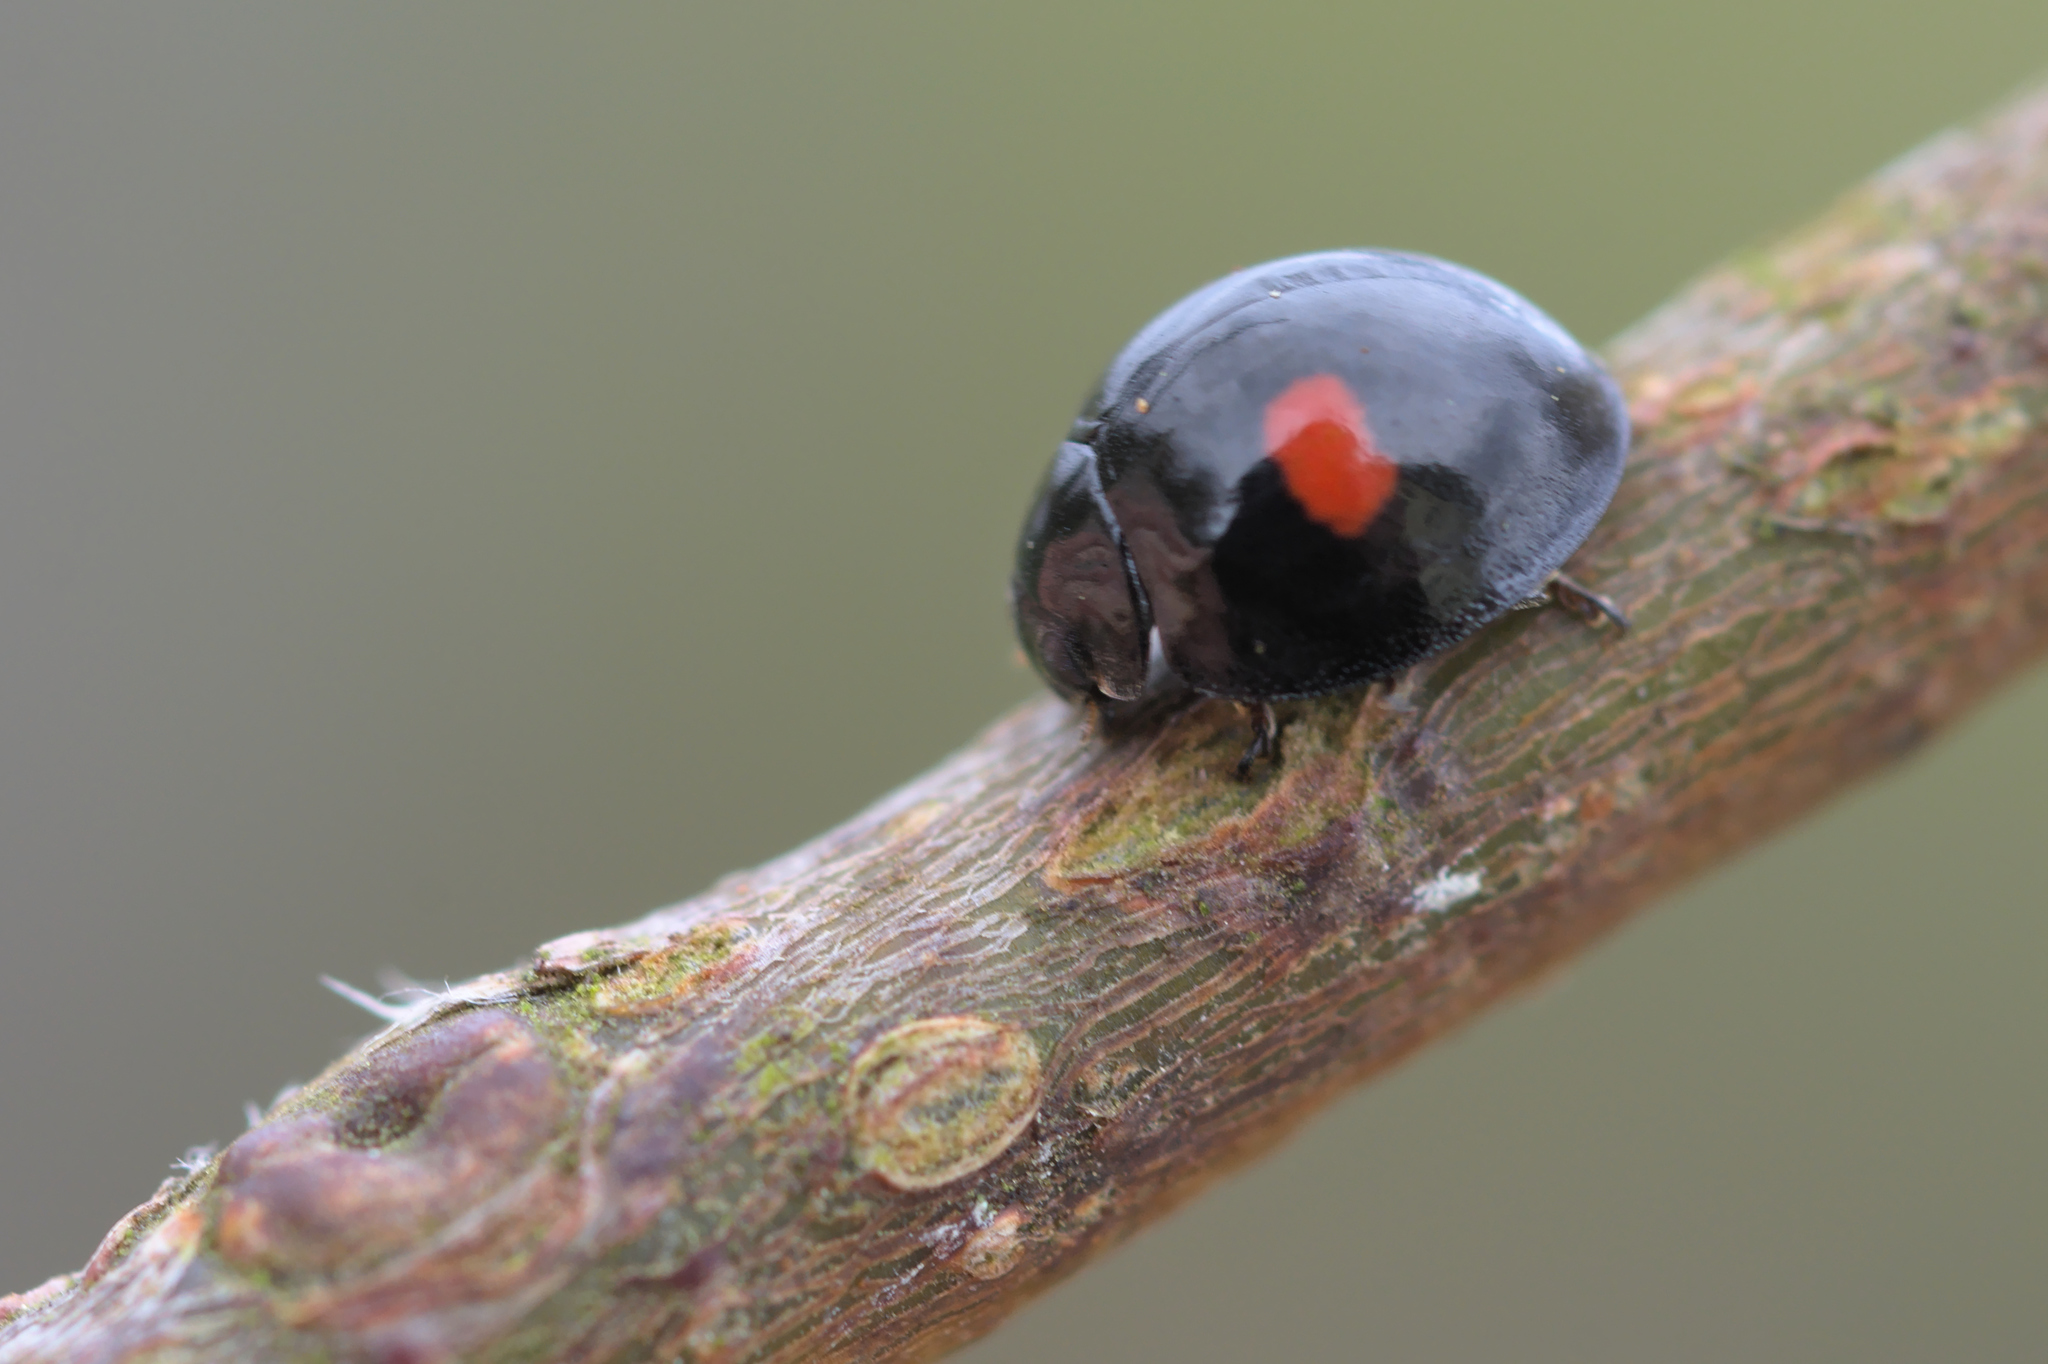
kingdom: Animalia
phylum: Arthropoda
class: Insecta
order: Coleoptera
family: Coccinellidae
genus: Chilocorus
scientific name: Chilocorus renipustulatus
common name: Kidney-spot ladybird
